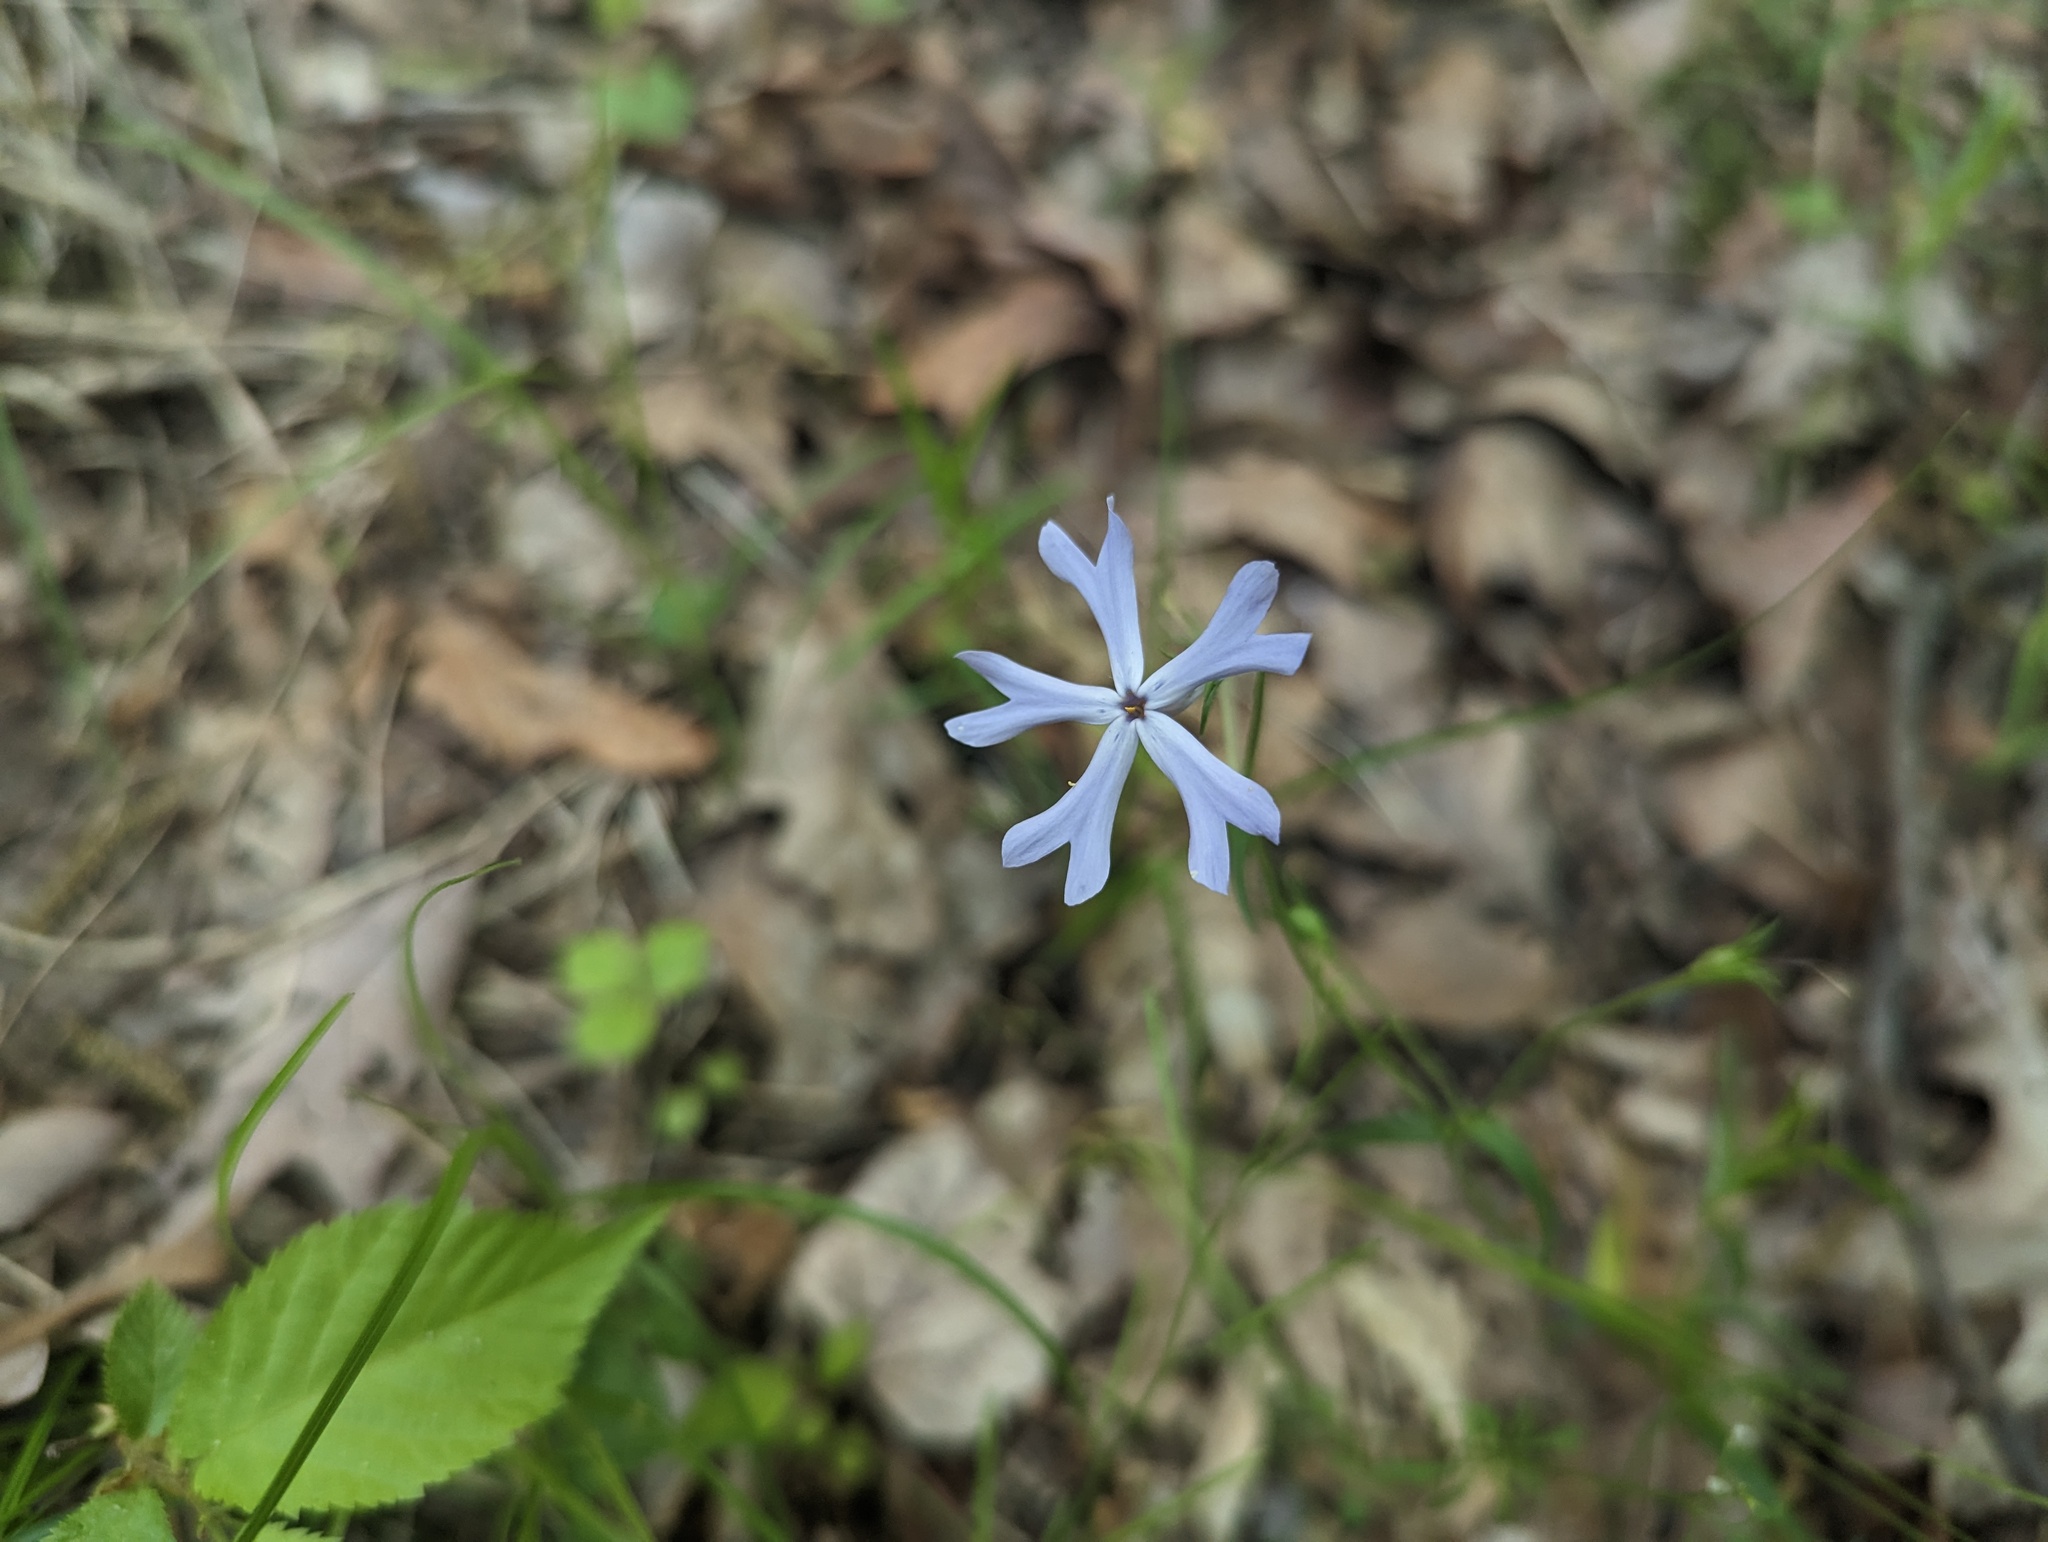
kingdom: Plantae
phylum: Tracheophyta
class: Magnoliopsida
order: Ericales
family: Polemoniaceae
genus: Phlox
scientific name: Phlox bifida
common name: Sand phlox
